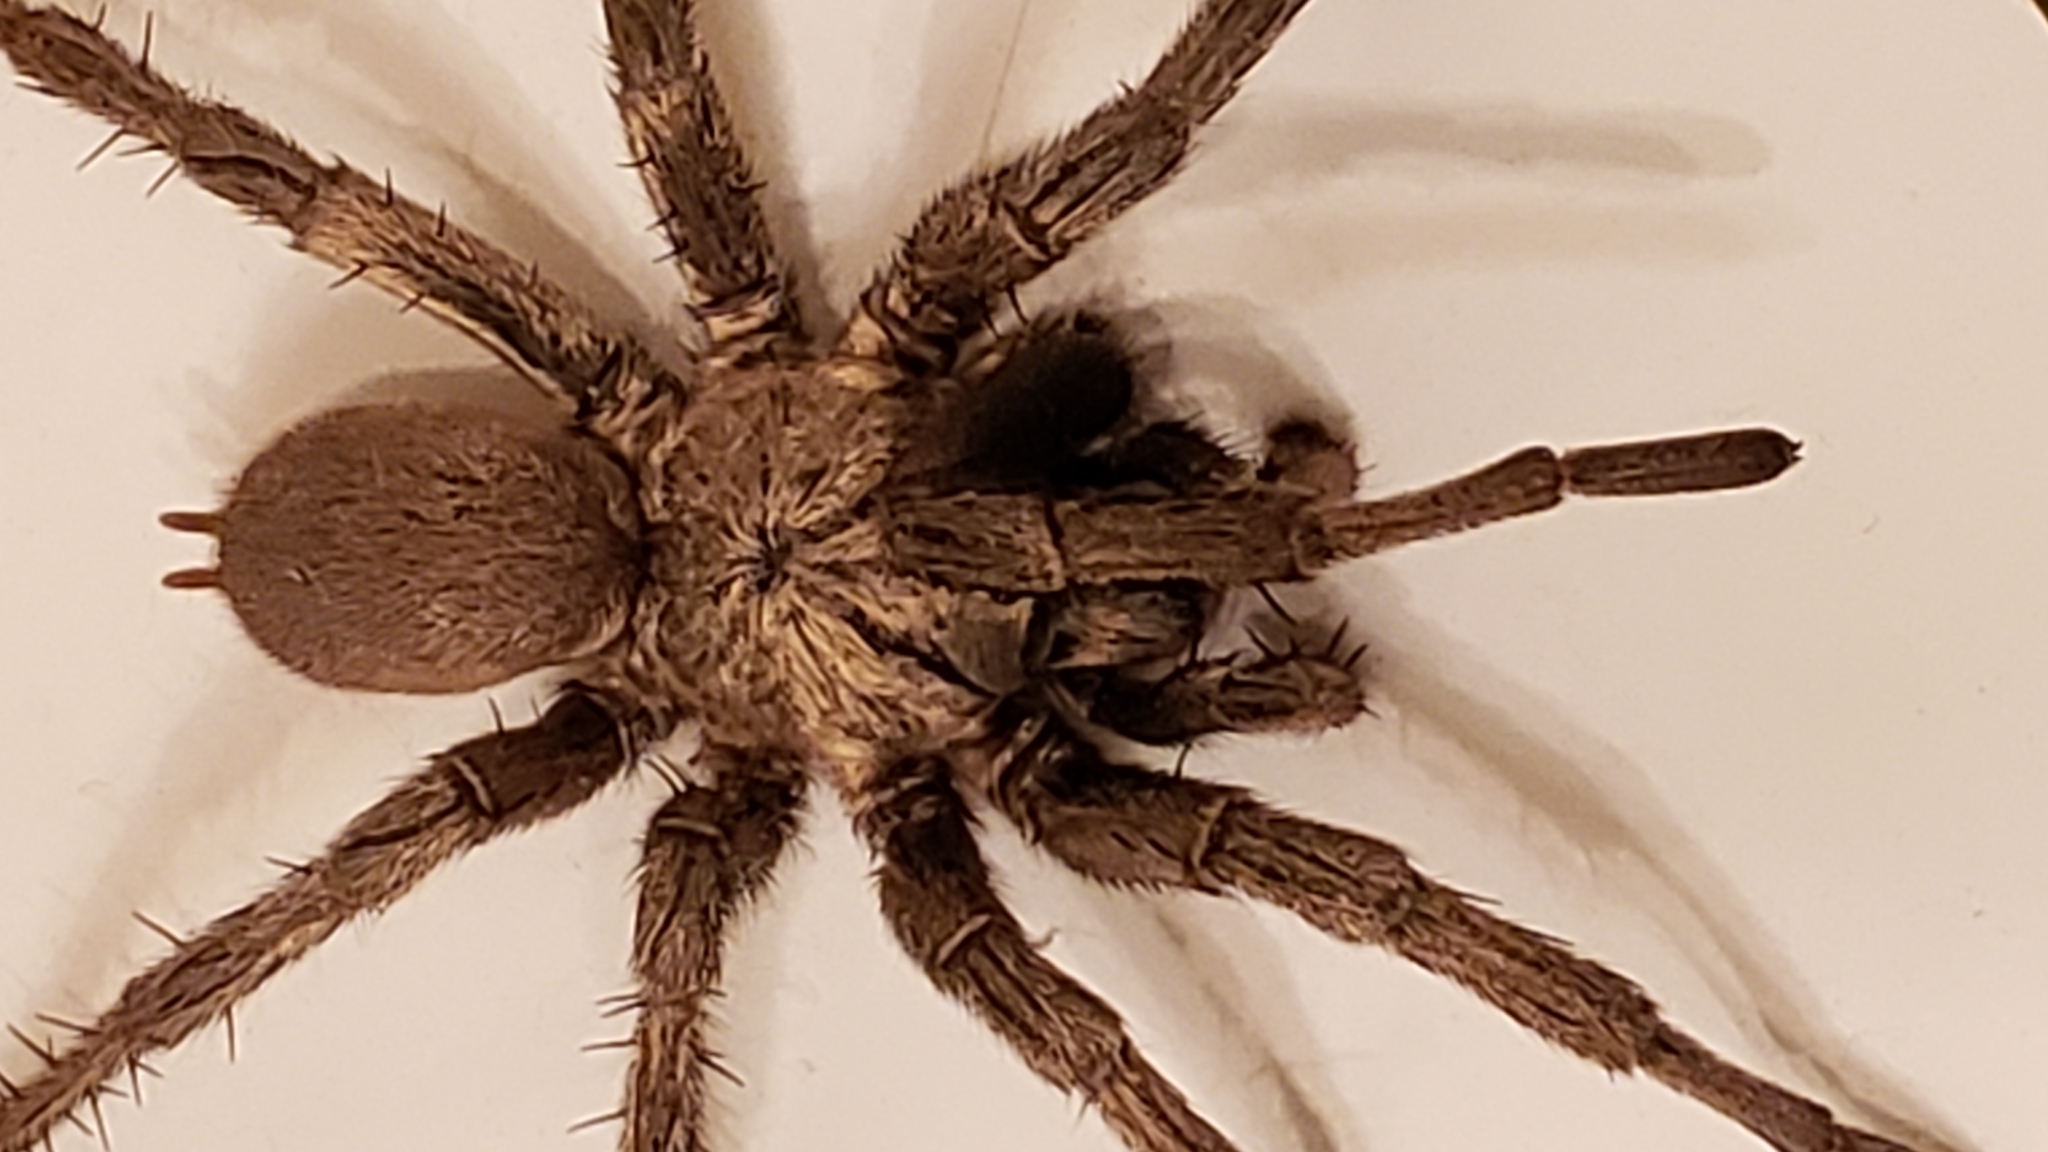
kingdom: Animalia
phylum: Arthropoda
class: Arachnida
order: Araneae
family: Nemesiidae
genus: Calisoga
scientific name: Calisoga longitarsis
